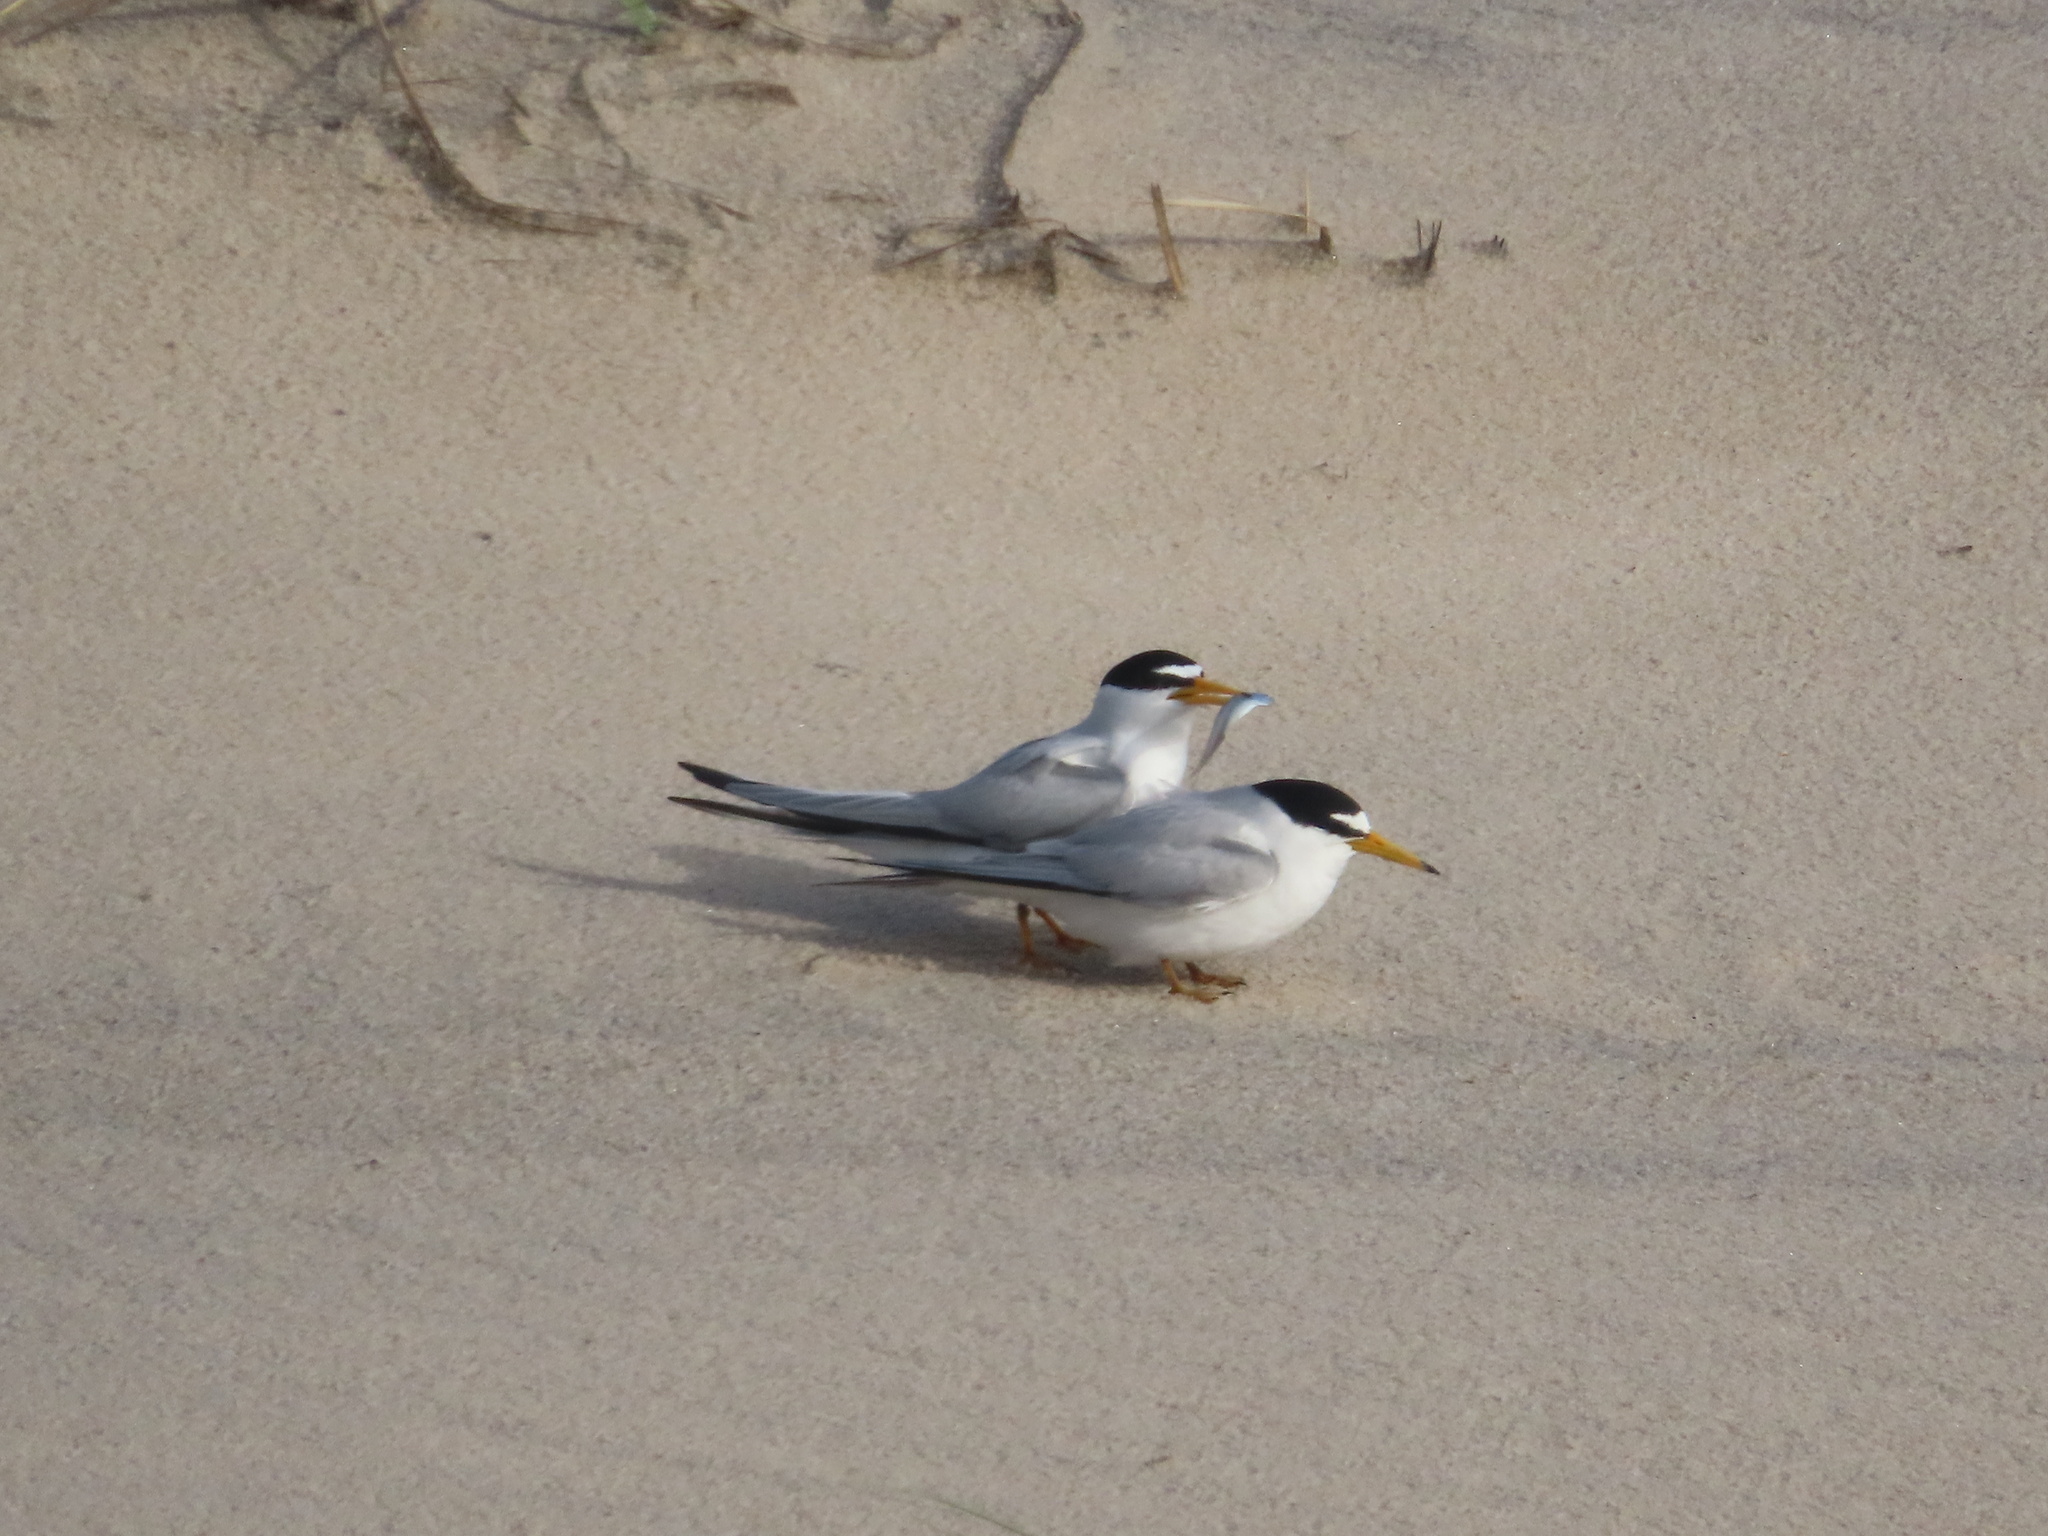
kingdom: Animalia
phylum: Chordata
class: Aves
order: Charadriiformes
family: Laridae
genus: Sternula
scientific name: Sternula antillarum
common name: Least tern
